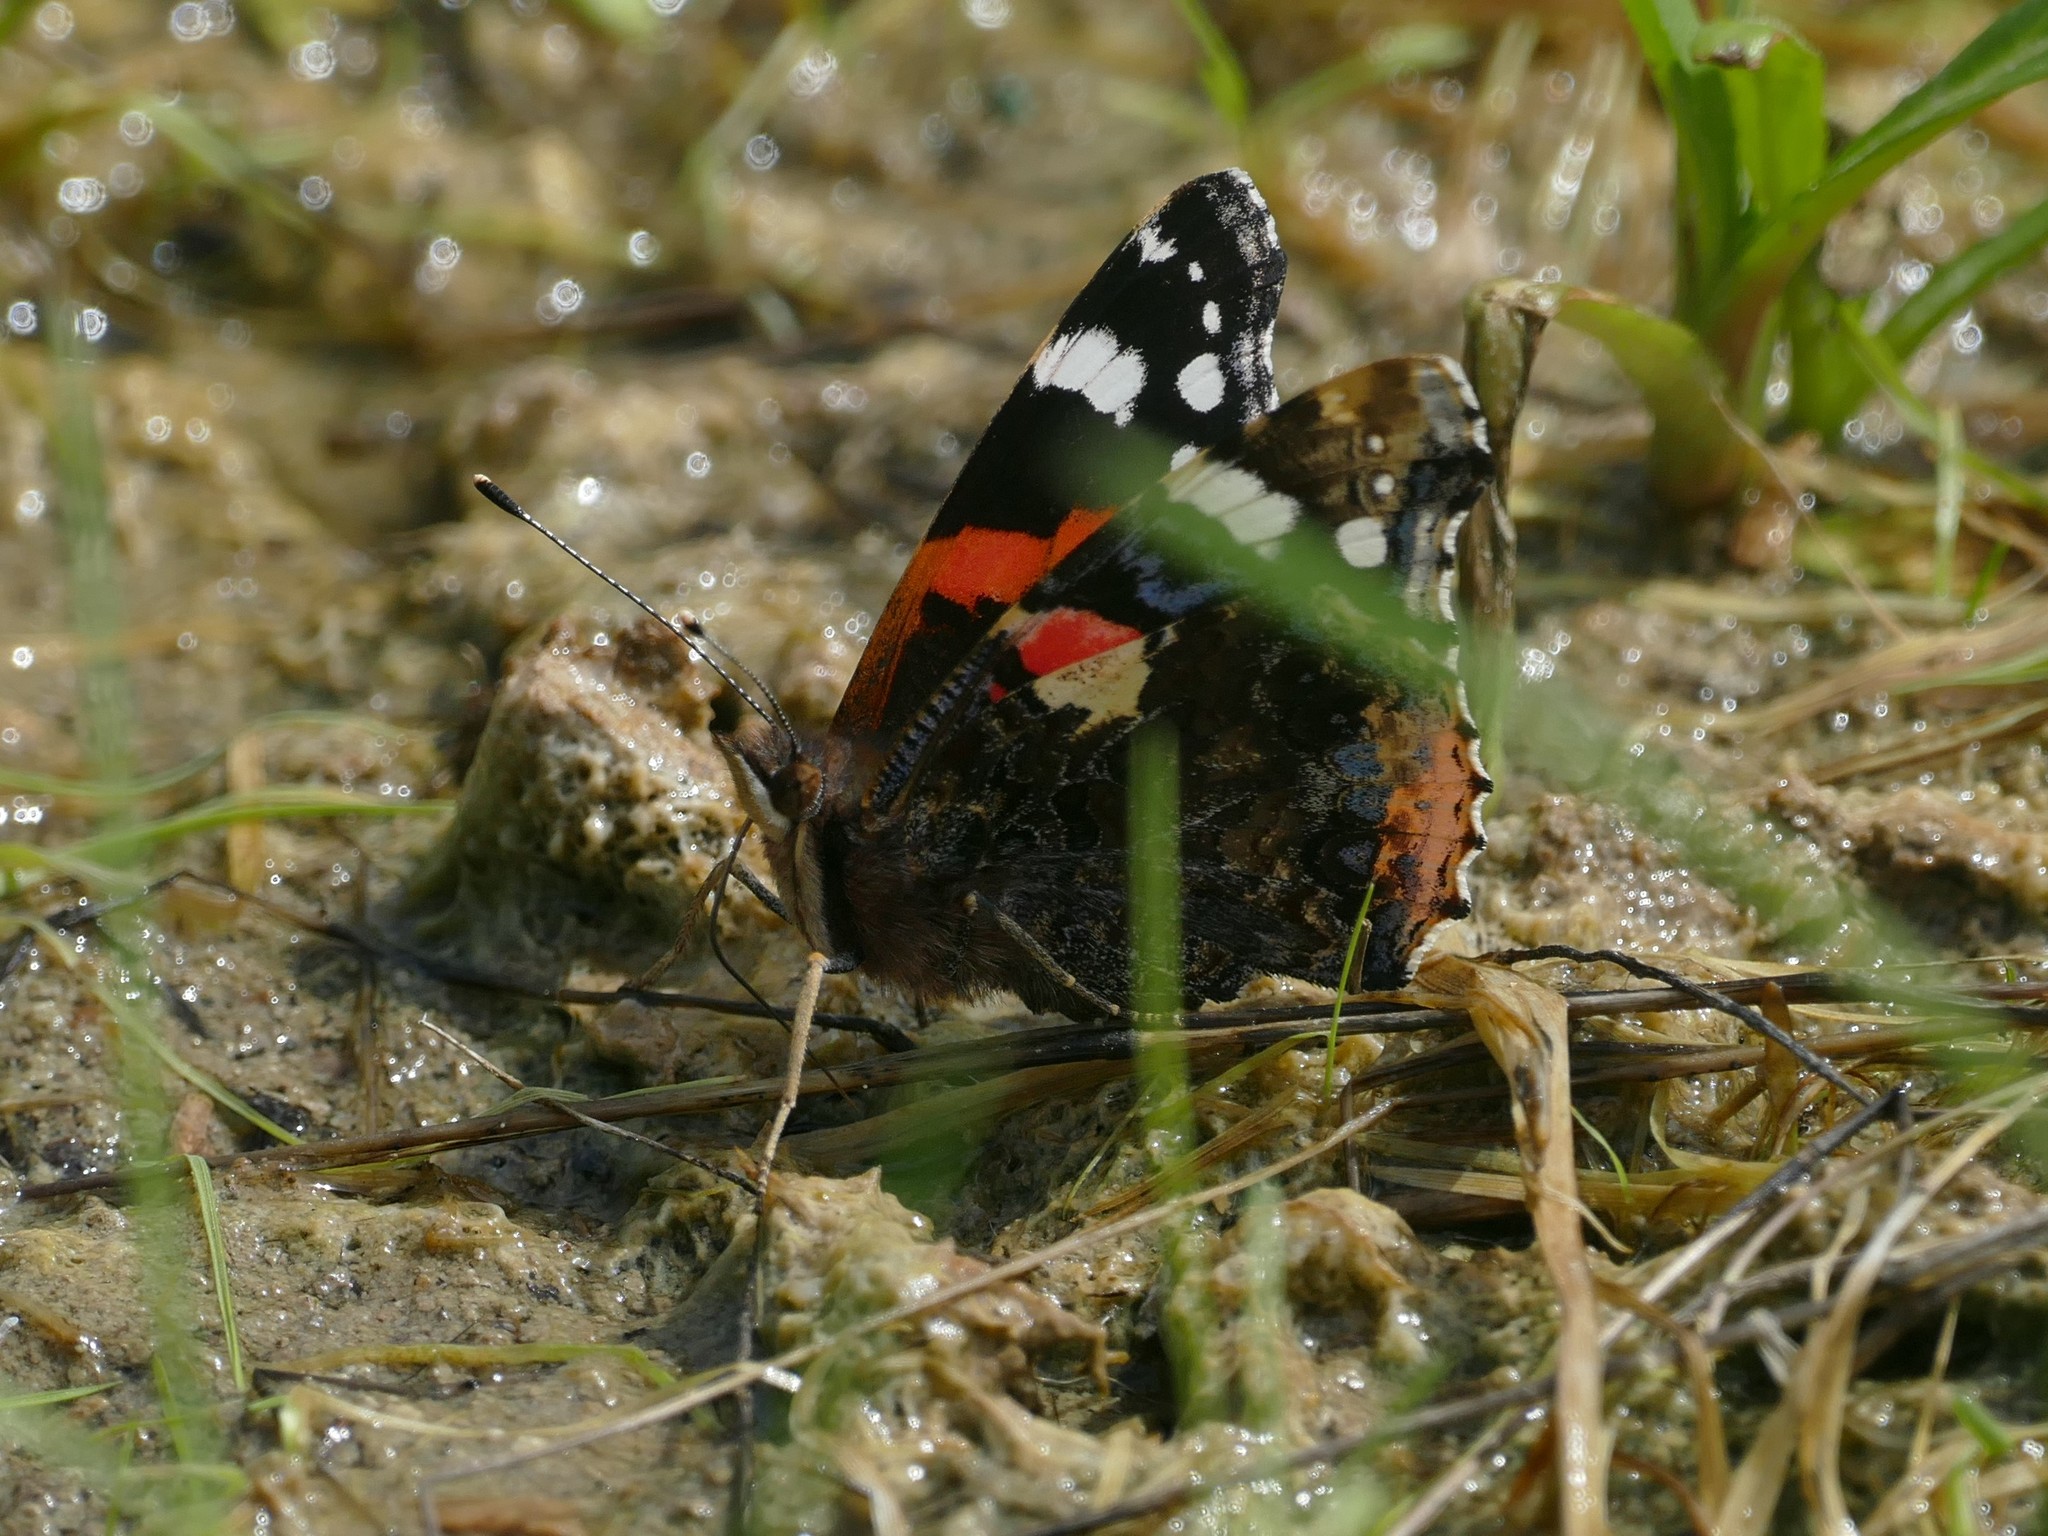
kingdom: Animalia
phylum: Arthropoda
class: Insecta
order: Lepidoptera
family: Nymphalidae
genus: Vanessa
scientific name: Vanessa atalanta
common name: Red admiral
